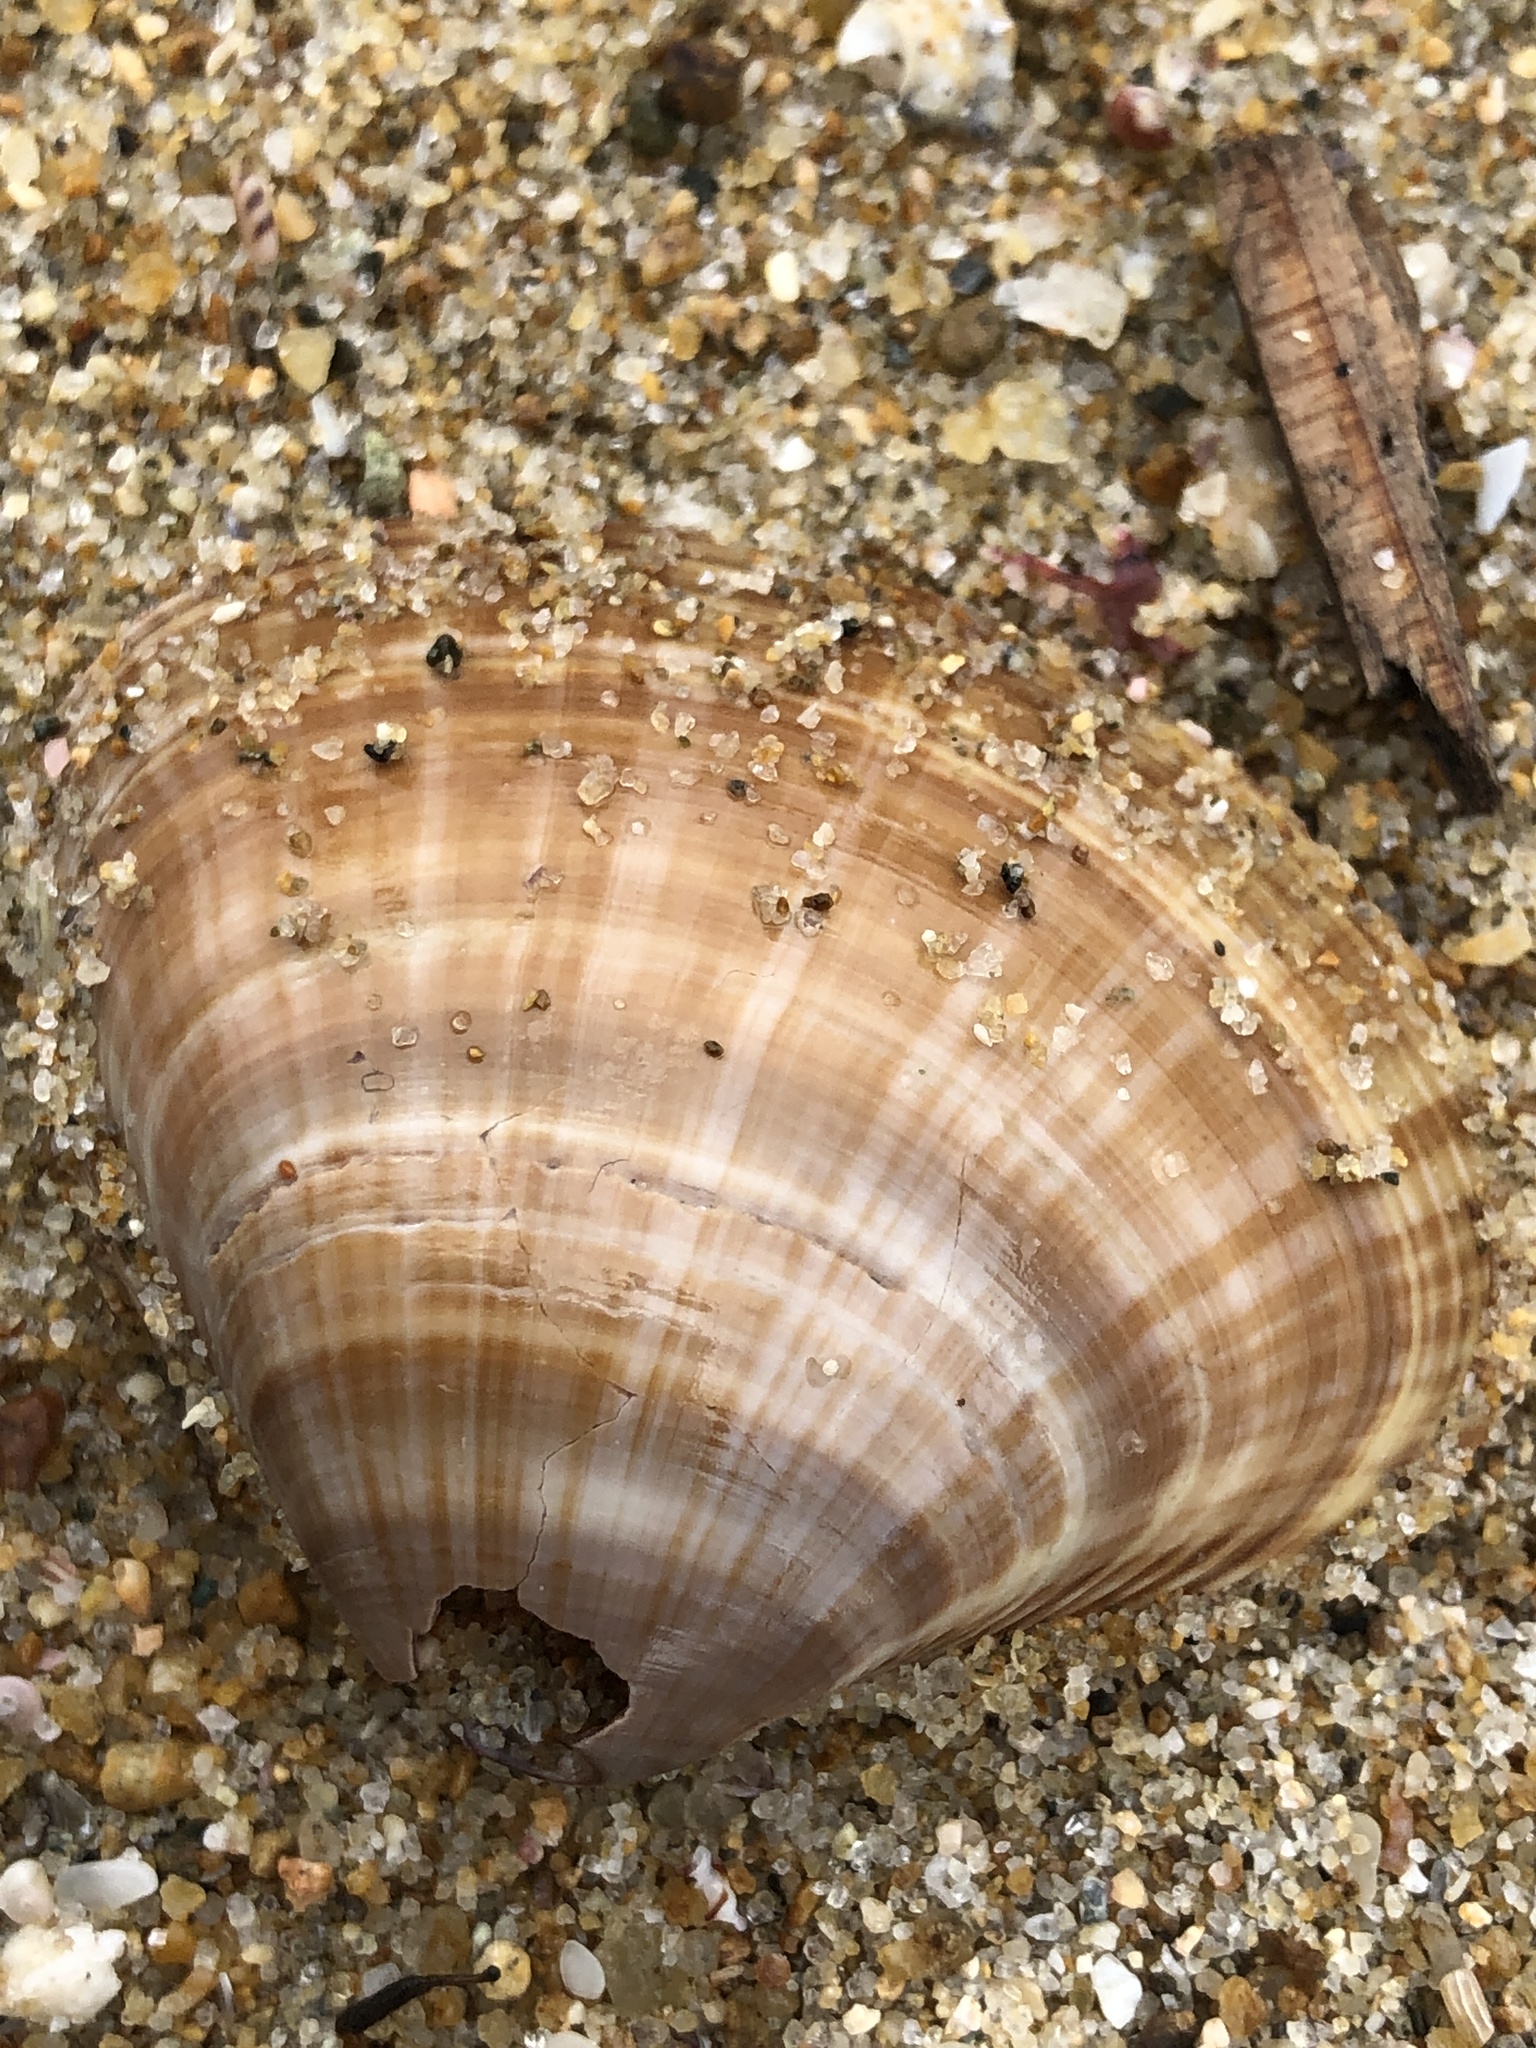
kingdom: Animalia
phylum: Mollusca
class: Bivalvia
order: Venerida
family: Mactridae
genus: Mactra
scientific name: Mactra chinensis
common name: Chinese surf clam
